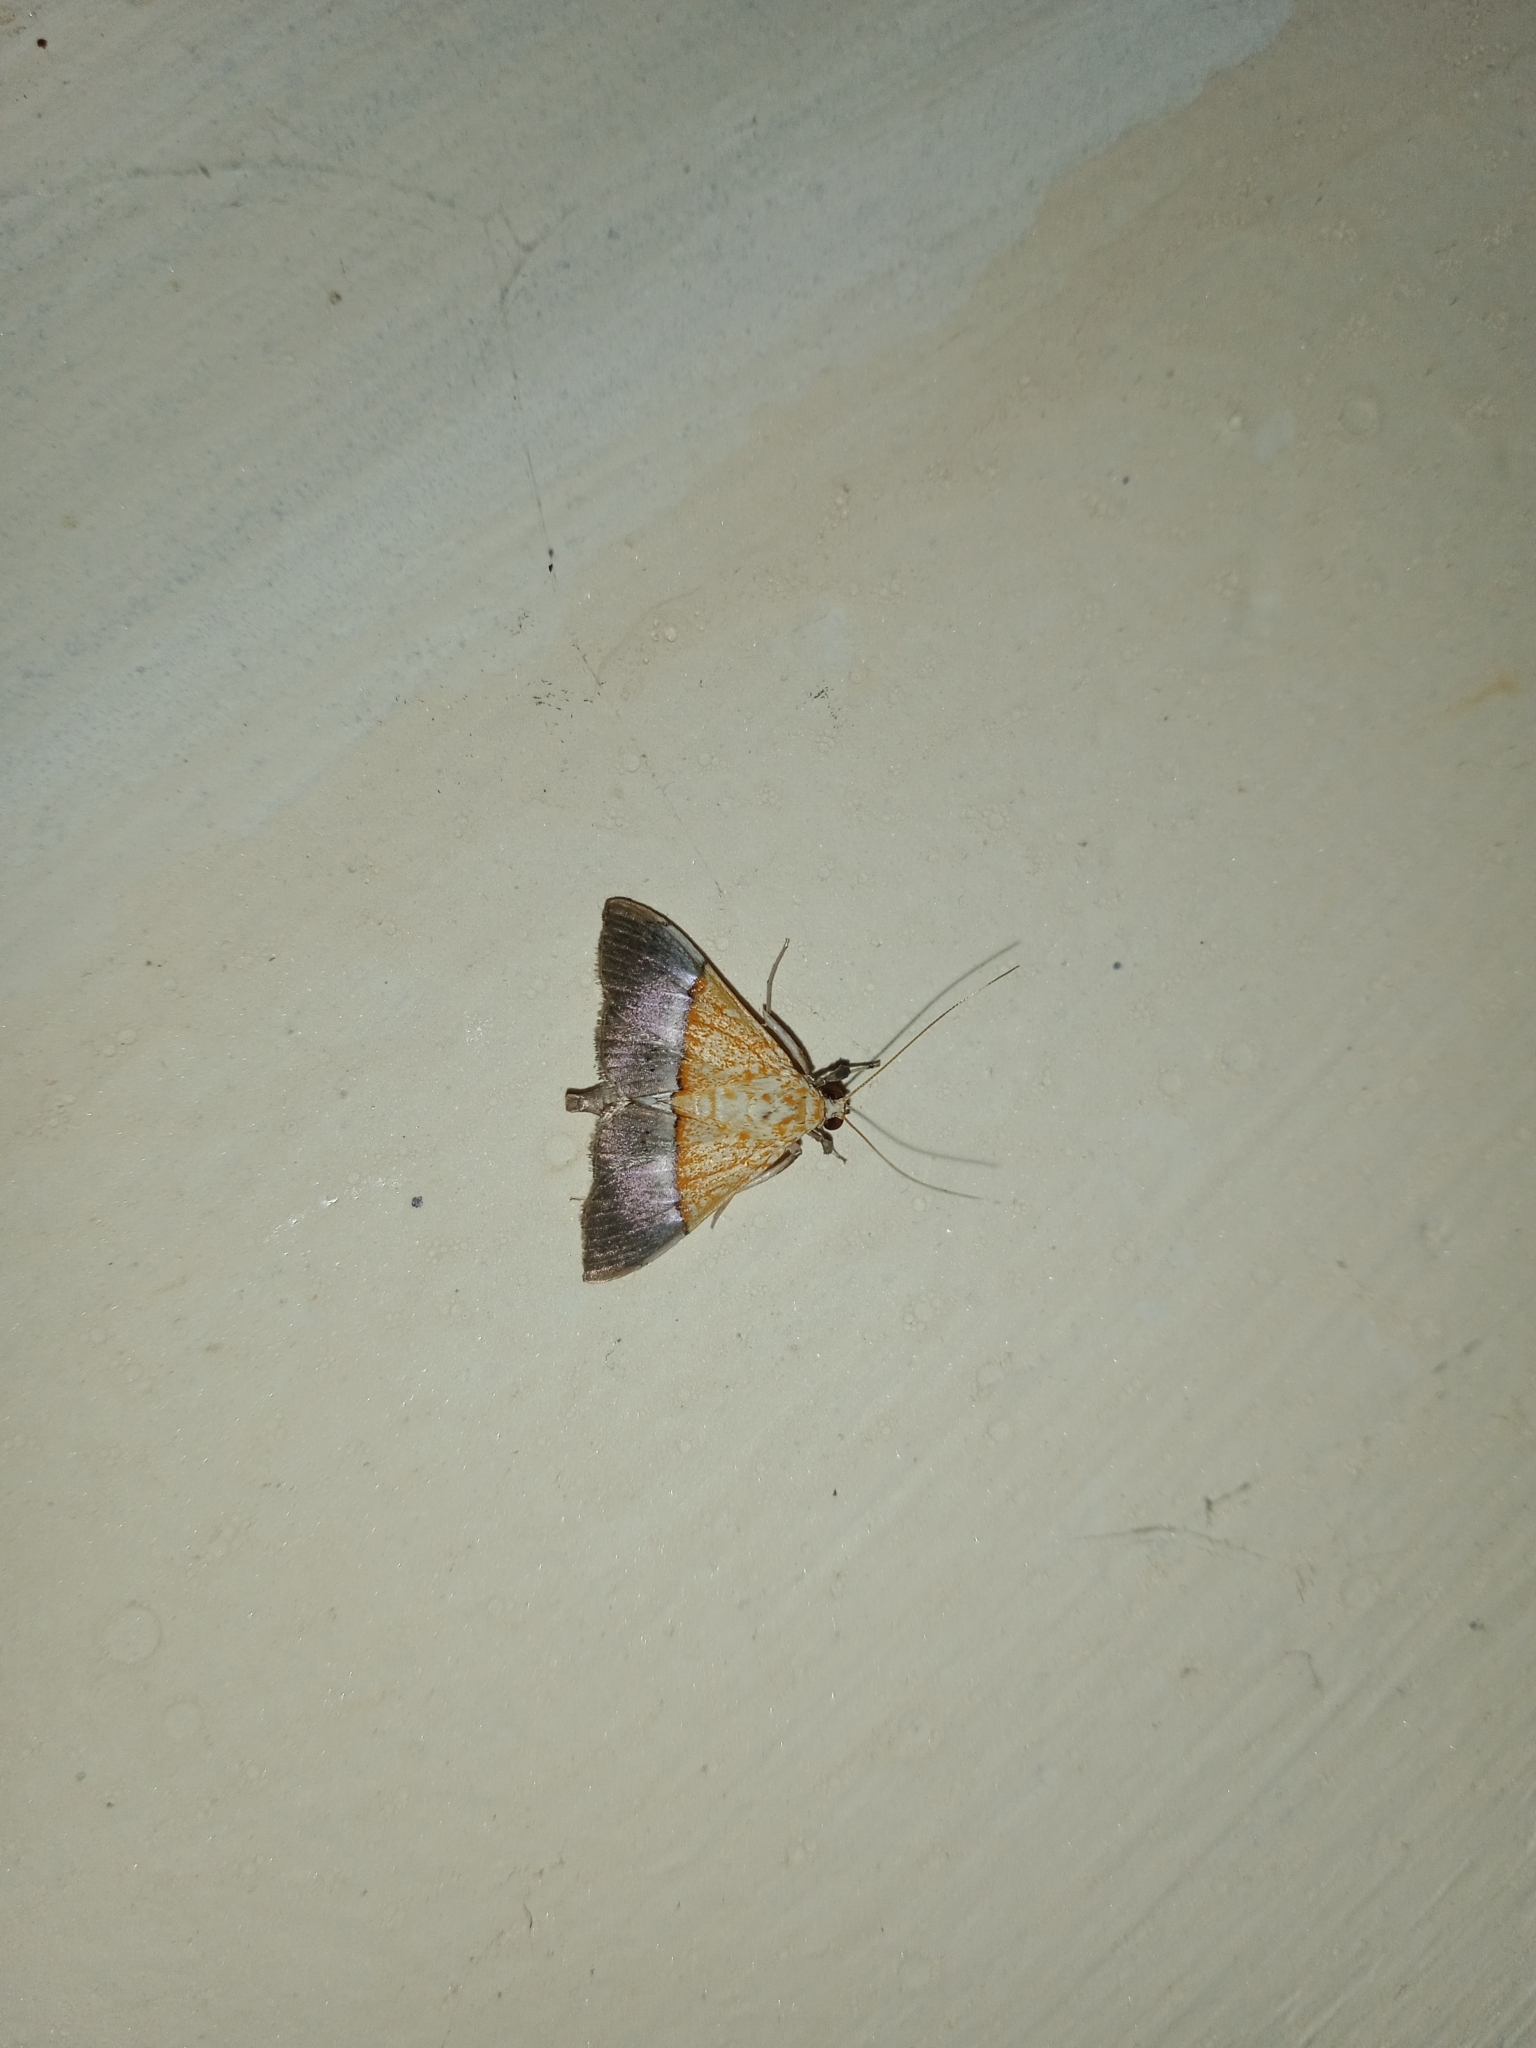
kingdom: Animalia
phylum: Arthropoda
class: Insecta
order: Lepidoptera
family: Crambidae
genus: Agrotera
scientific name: Agrotera scissalis
